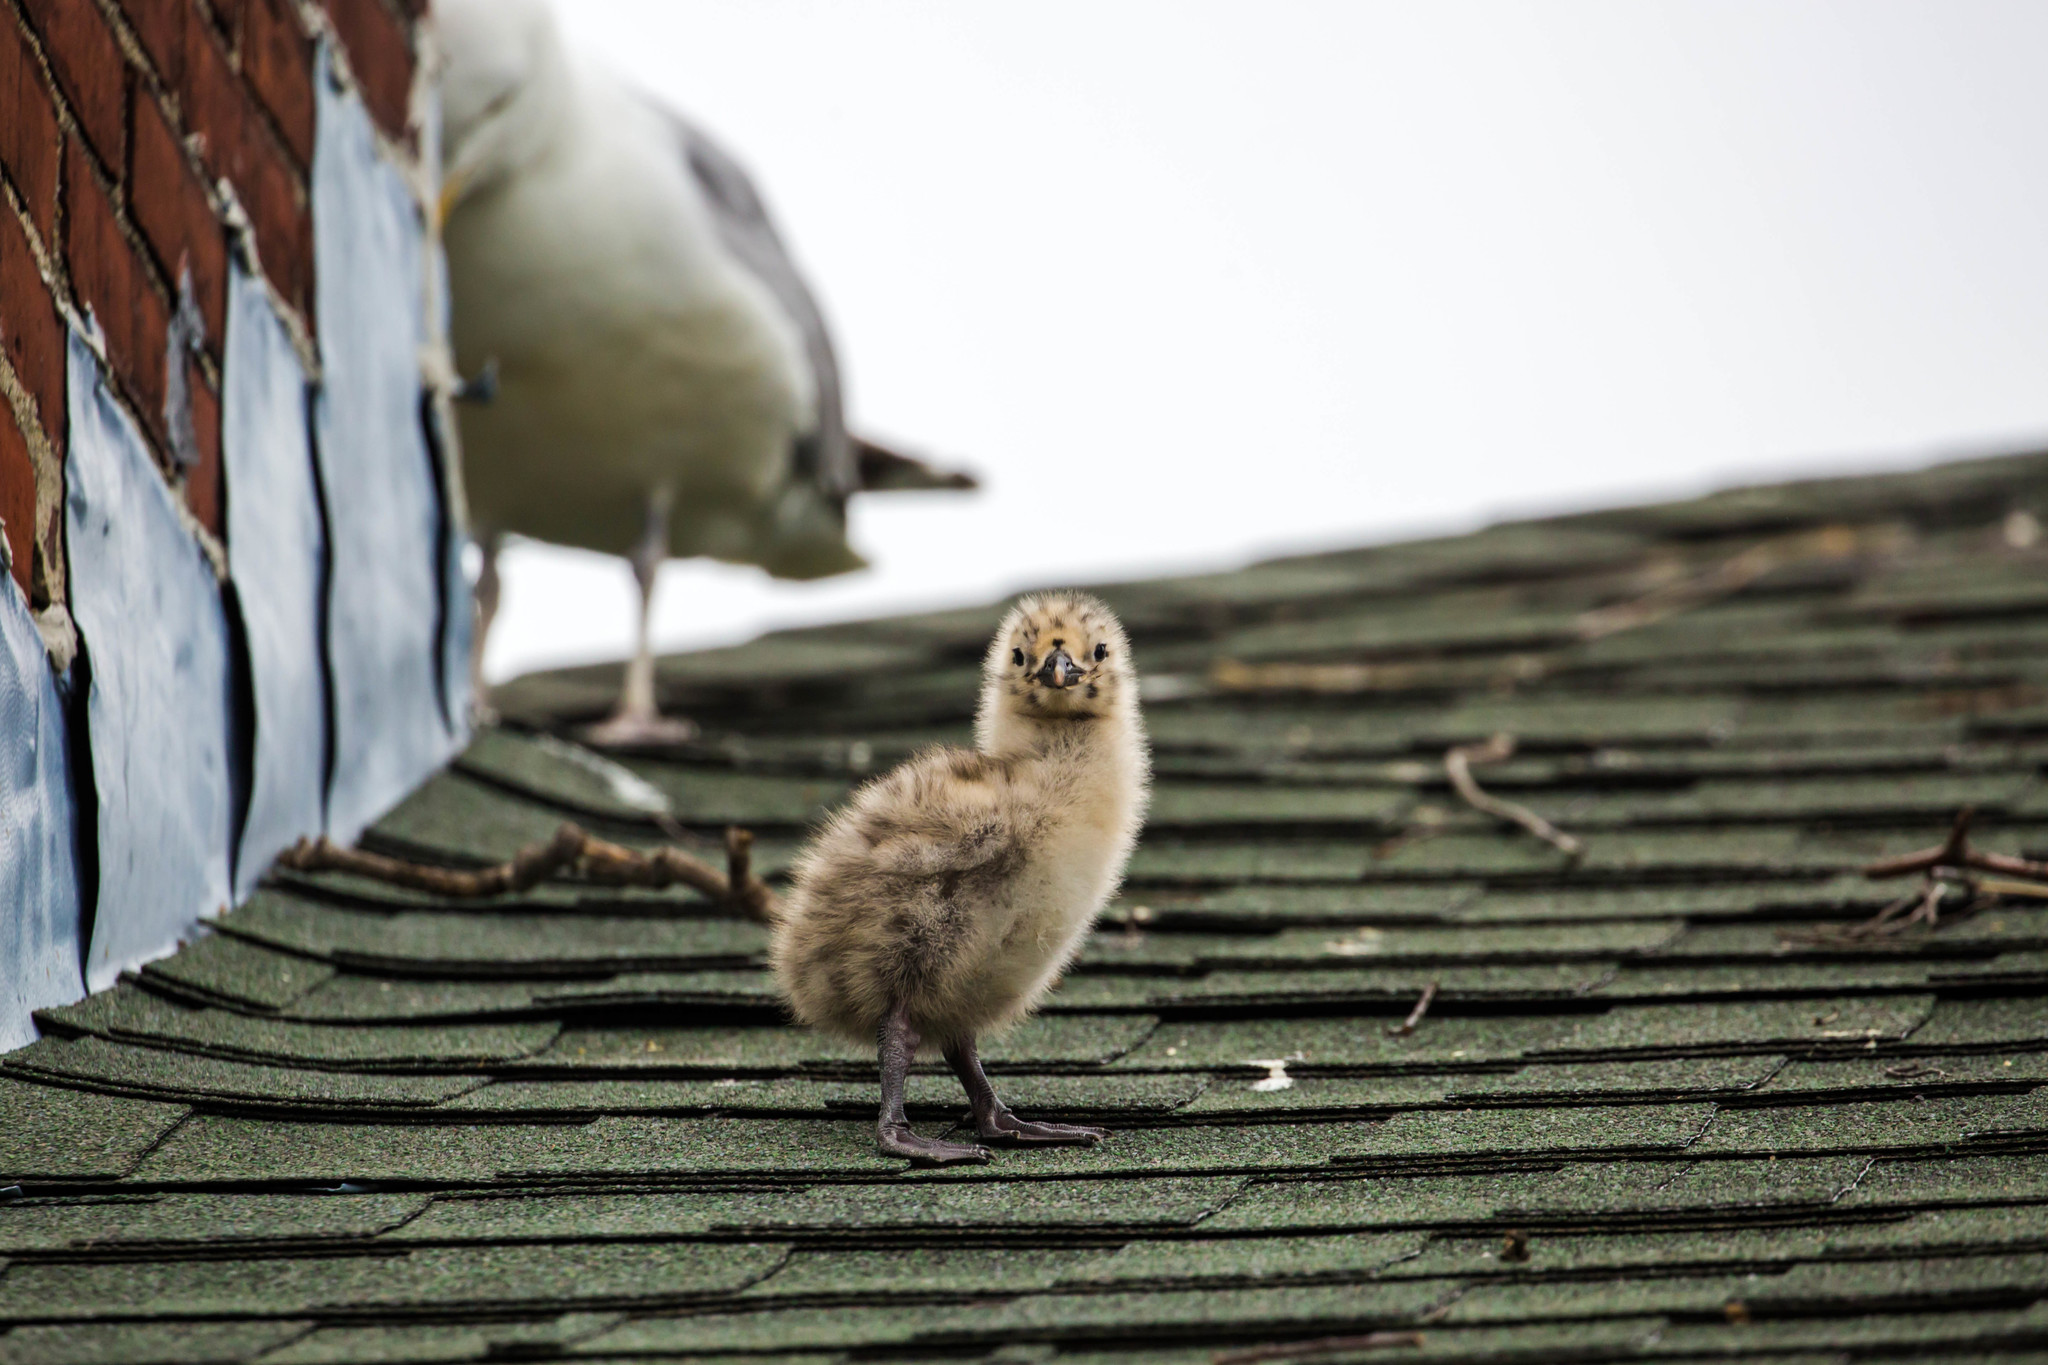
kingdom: Animalia
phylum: Chordata
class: Aves
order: Charadriiformes
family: Laridae
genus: Larus
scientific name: Larus argentatus
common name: Herring gull
